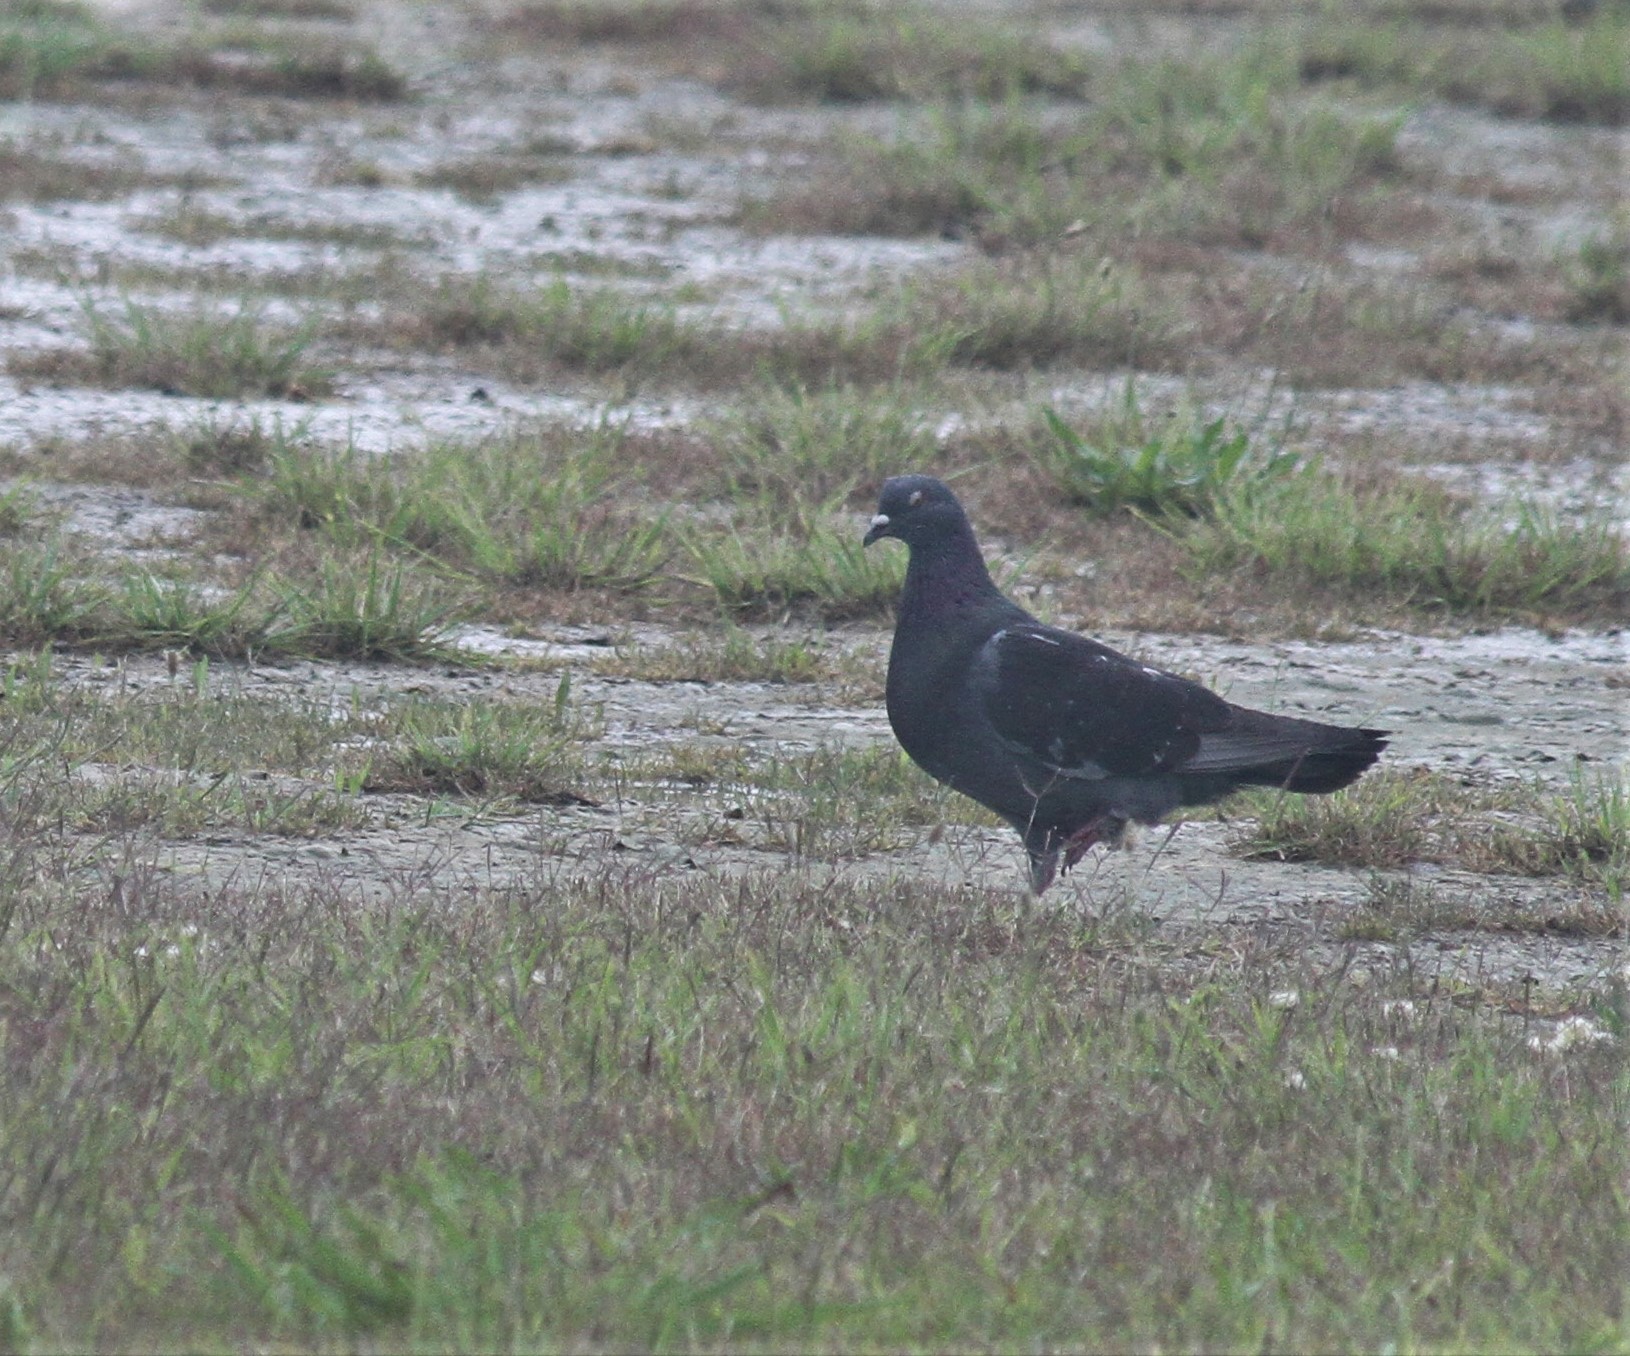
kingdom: Animalia
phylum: Chordata
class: Aves
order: Columbiformes
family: Columbidae
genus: Columba
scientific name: Columba livia
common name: Rock pigeon
